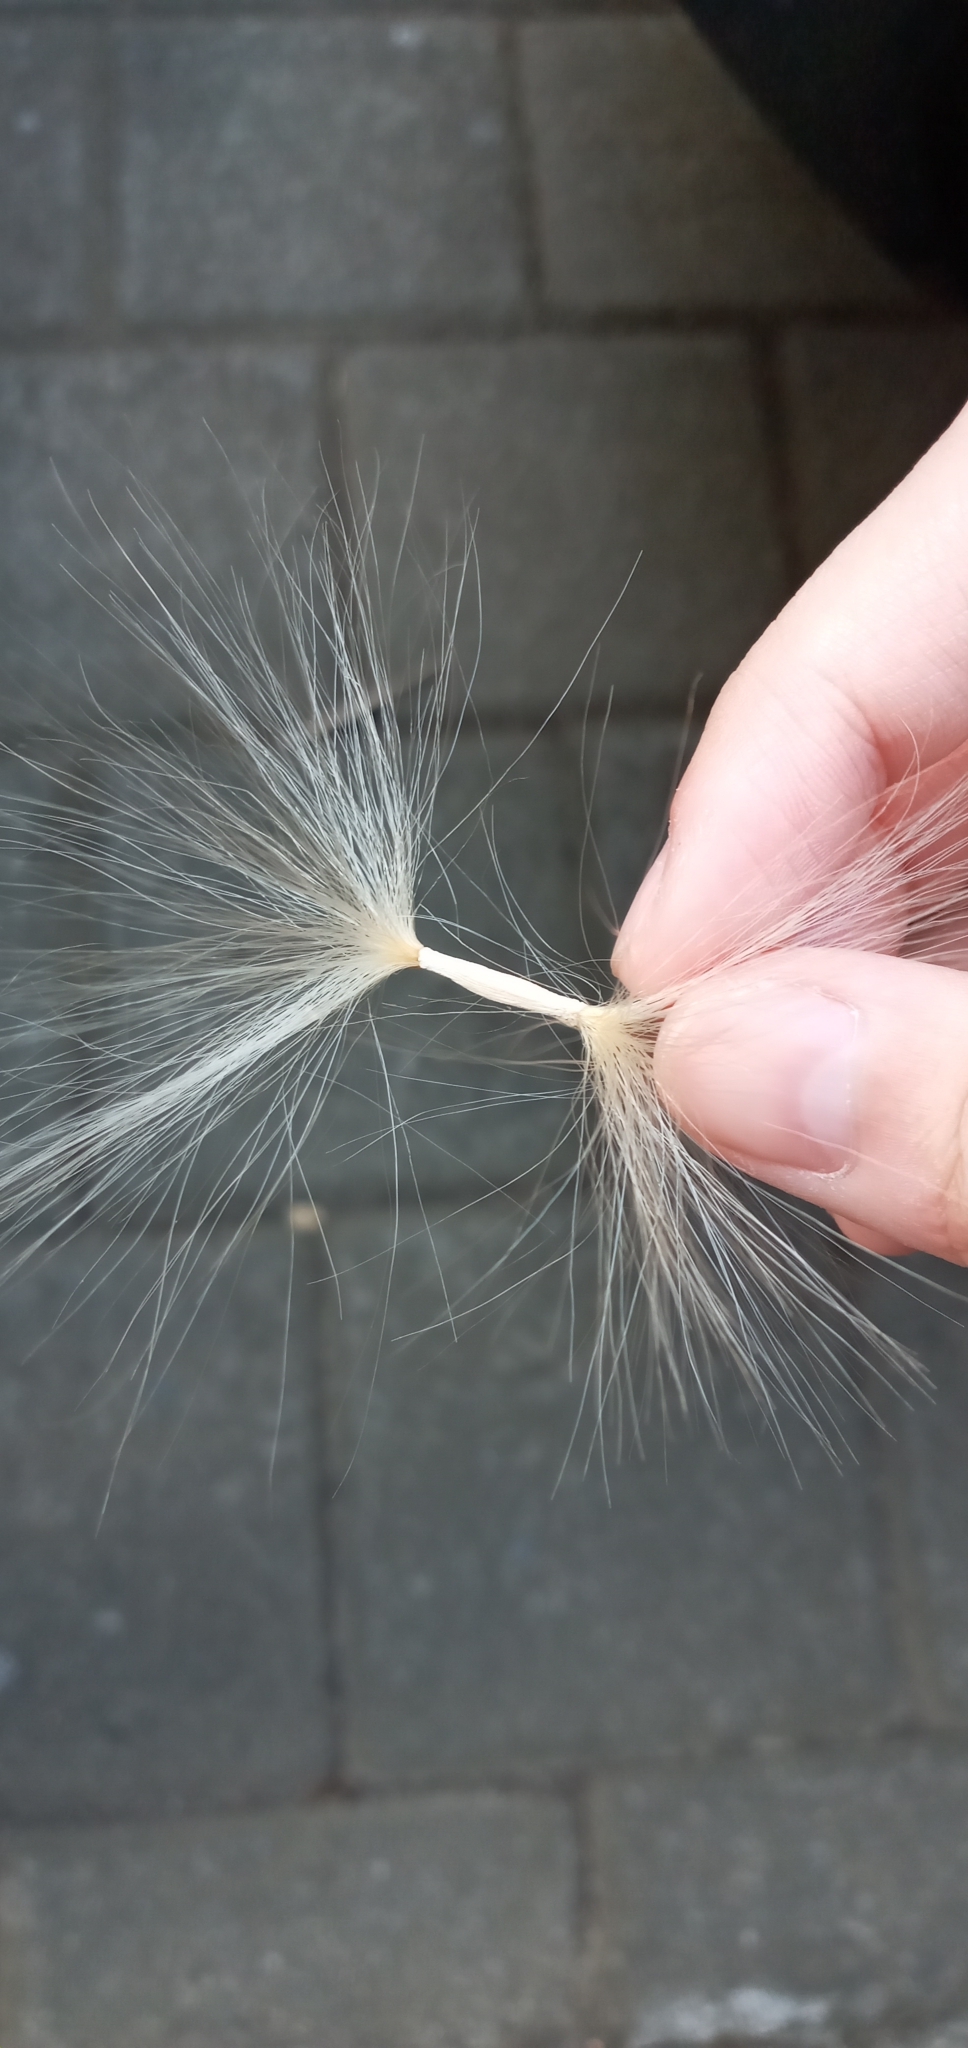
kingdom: Plantae
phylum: Tracheophyta
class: Magnoliopsida
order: Gentianales
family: Apocynaceae
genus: Adenium
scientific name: Adenium obesum
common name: Desert-rose
